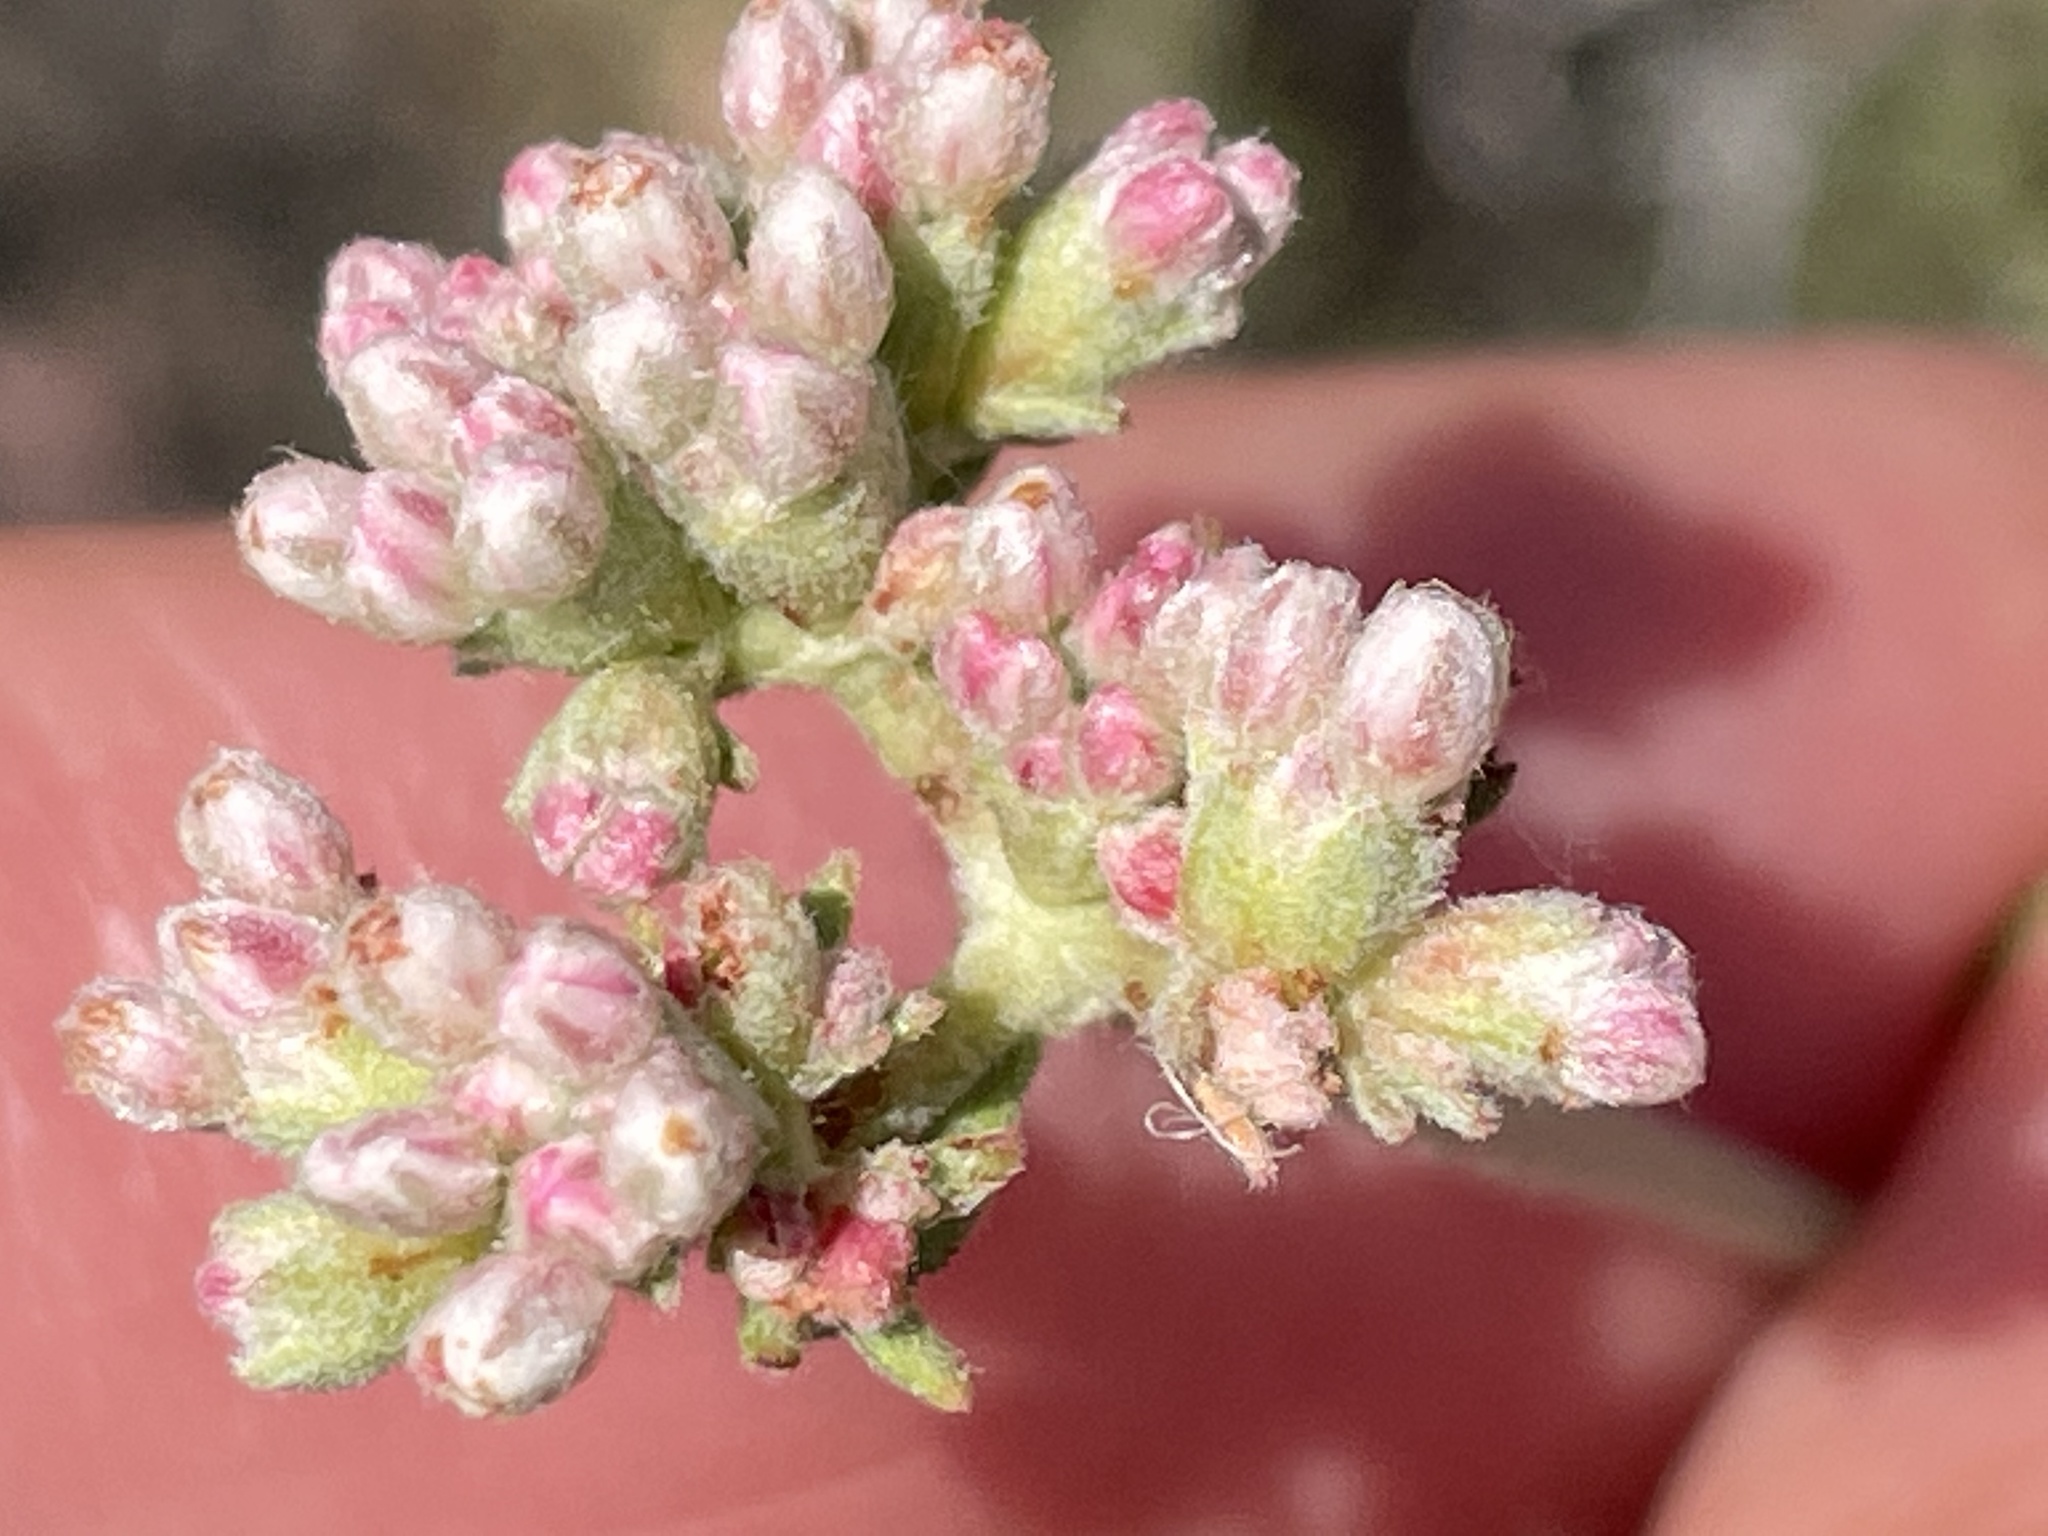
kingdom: Plantae
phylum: Tracheophyta
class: Magnoliopsida
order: Caryophyllales
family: Polygonaceae
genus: Eriogonum
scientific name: Eriogonum fasciculatum
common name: California wild buckwheat
